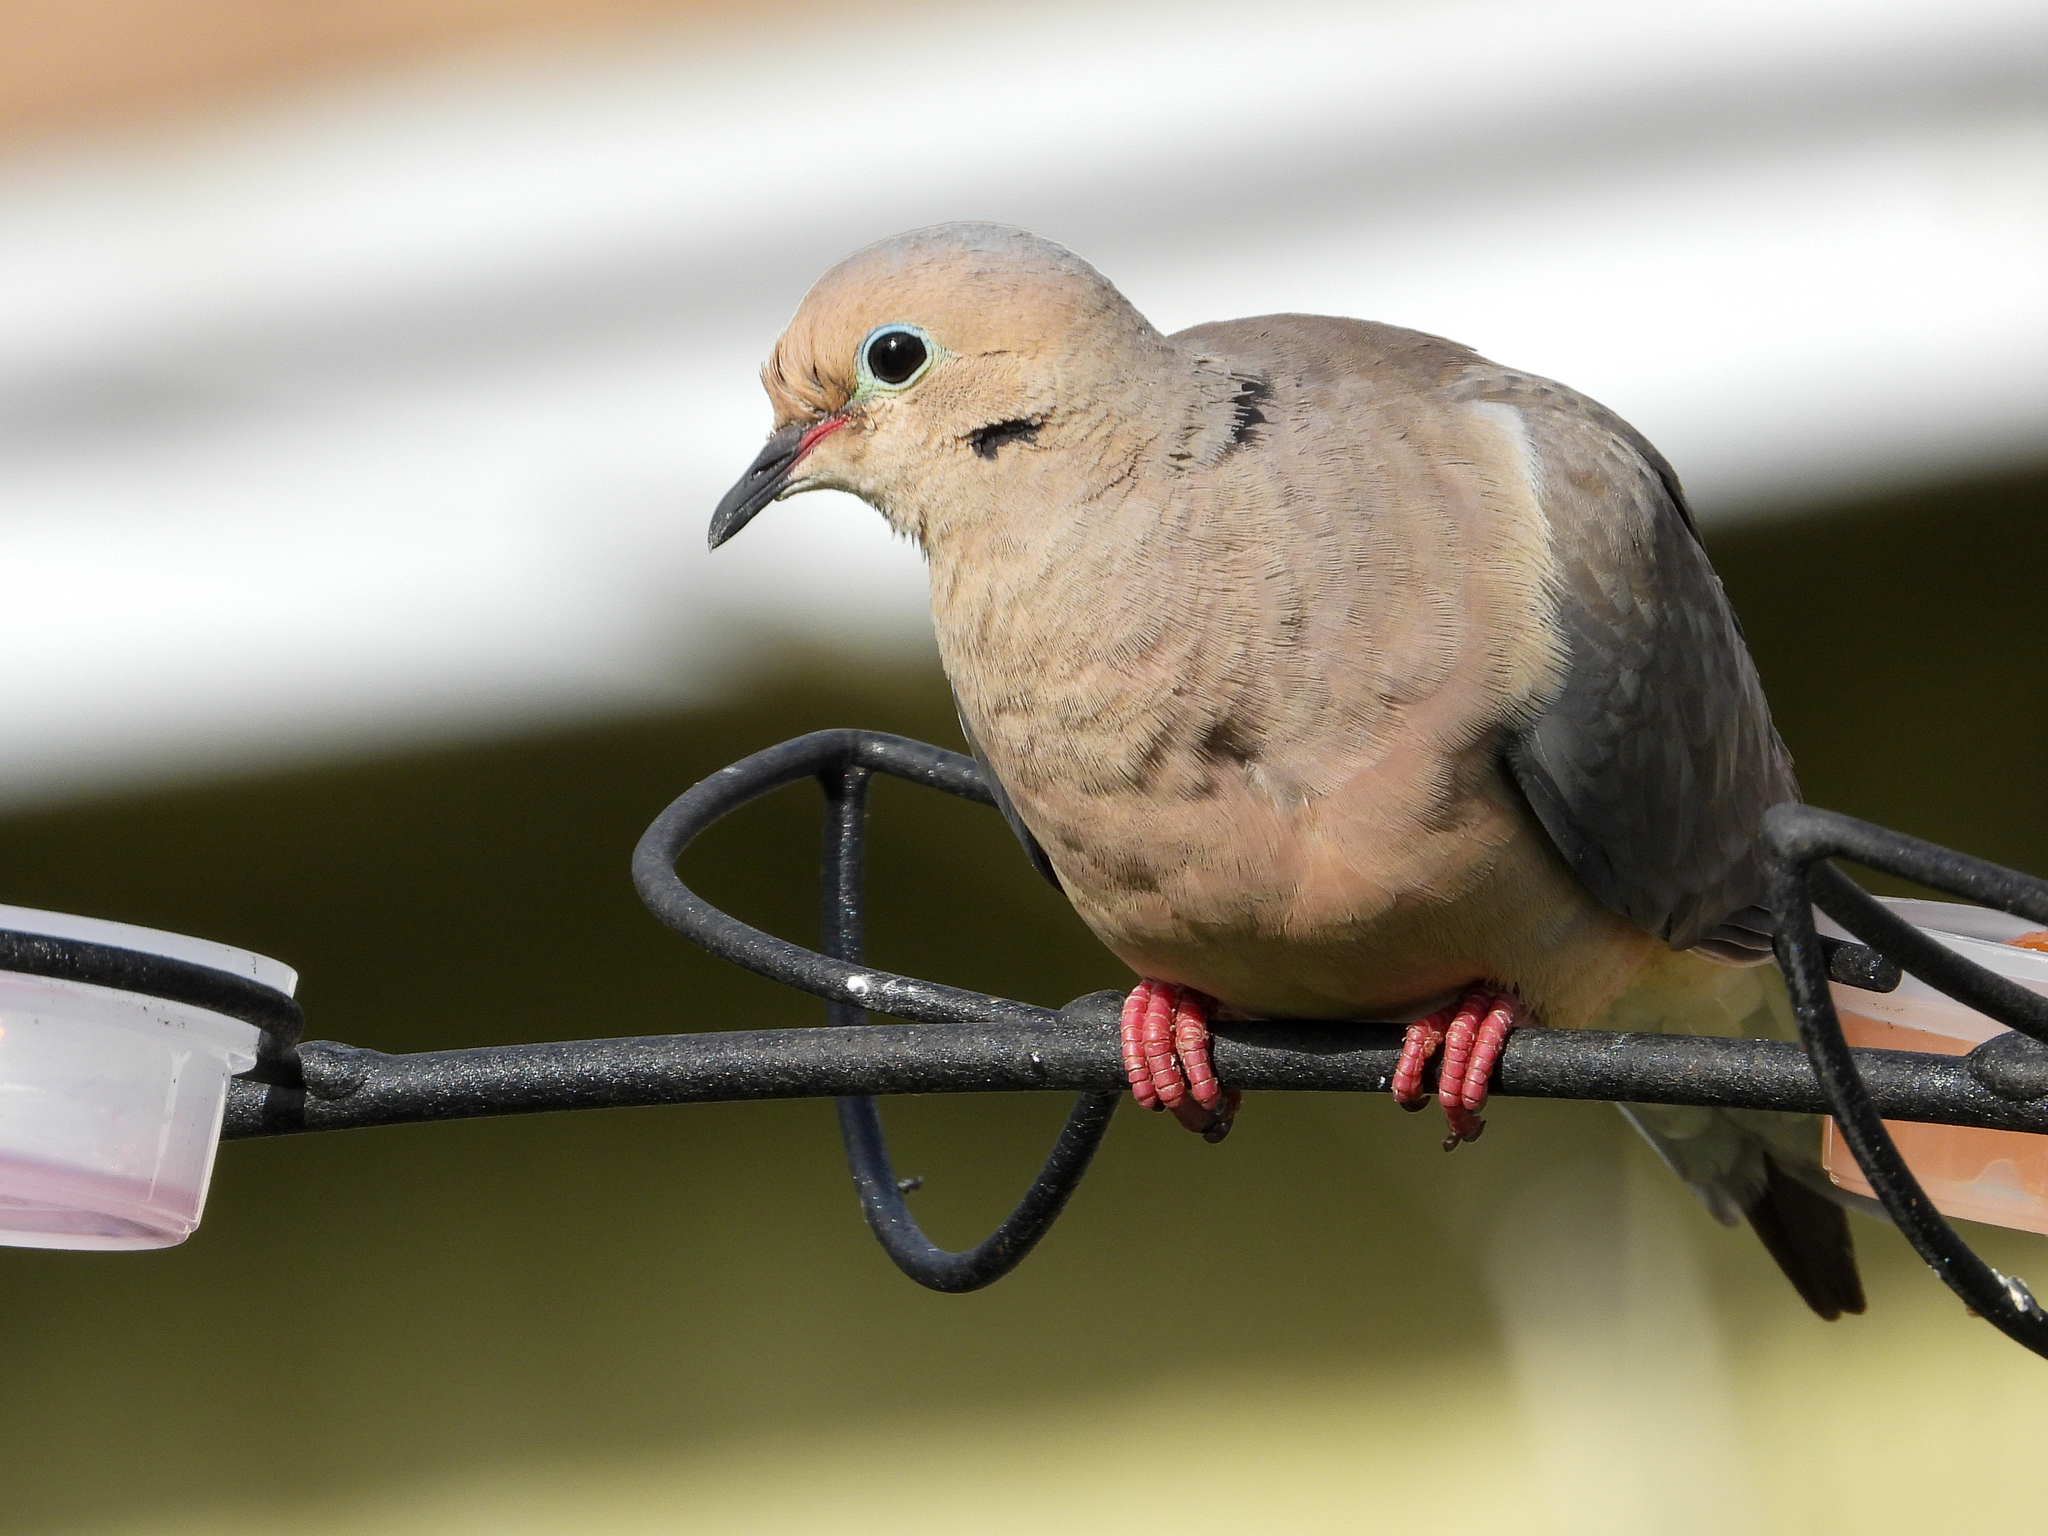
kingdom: Animalia
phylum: Chordata
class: Aves
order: Columbiformes
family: Columbidae
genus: Zenaida
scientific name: Zenaida macroura
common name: Mourning dove
